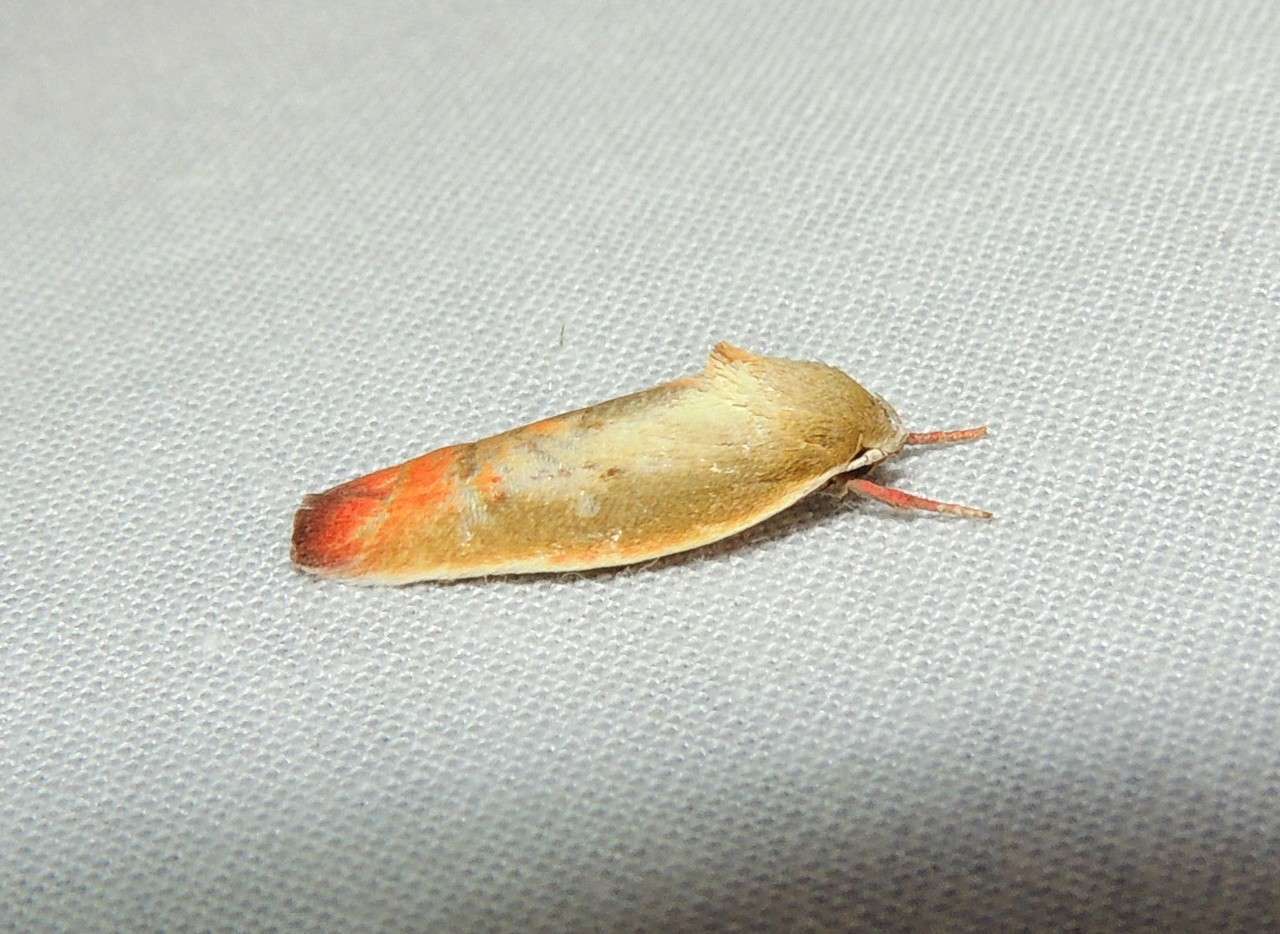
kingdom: Animalia
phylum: Arthropoda
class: Insecta
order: Lepidoptera
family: Oecophoridae
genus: Ptyoptila
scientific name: Ptyoptila matutinella
